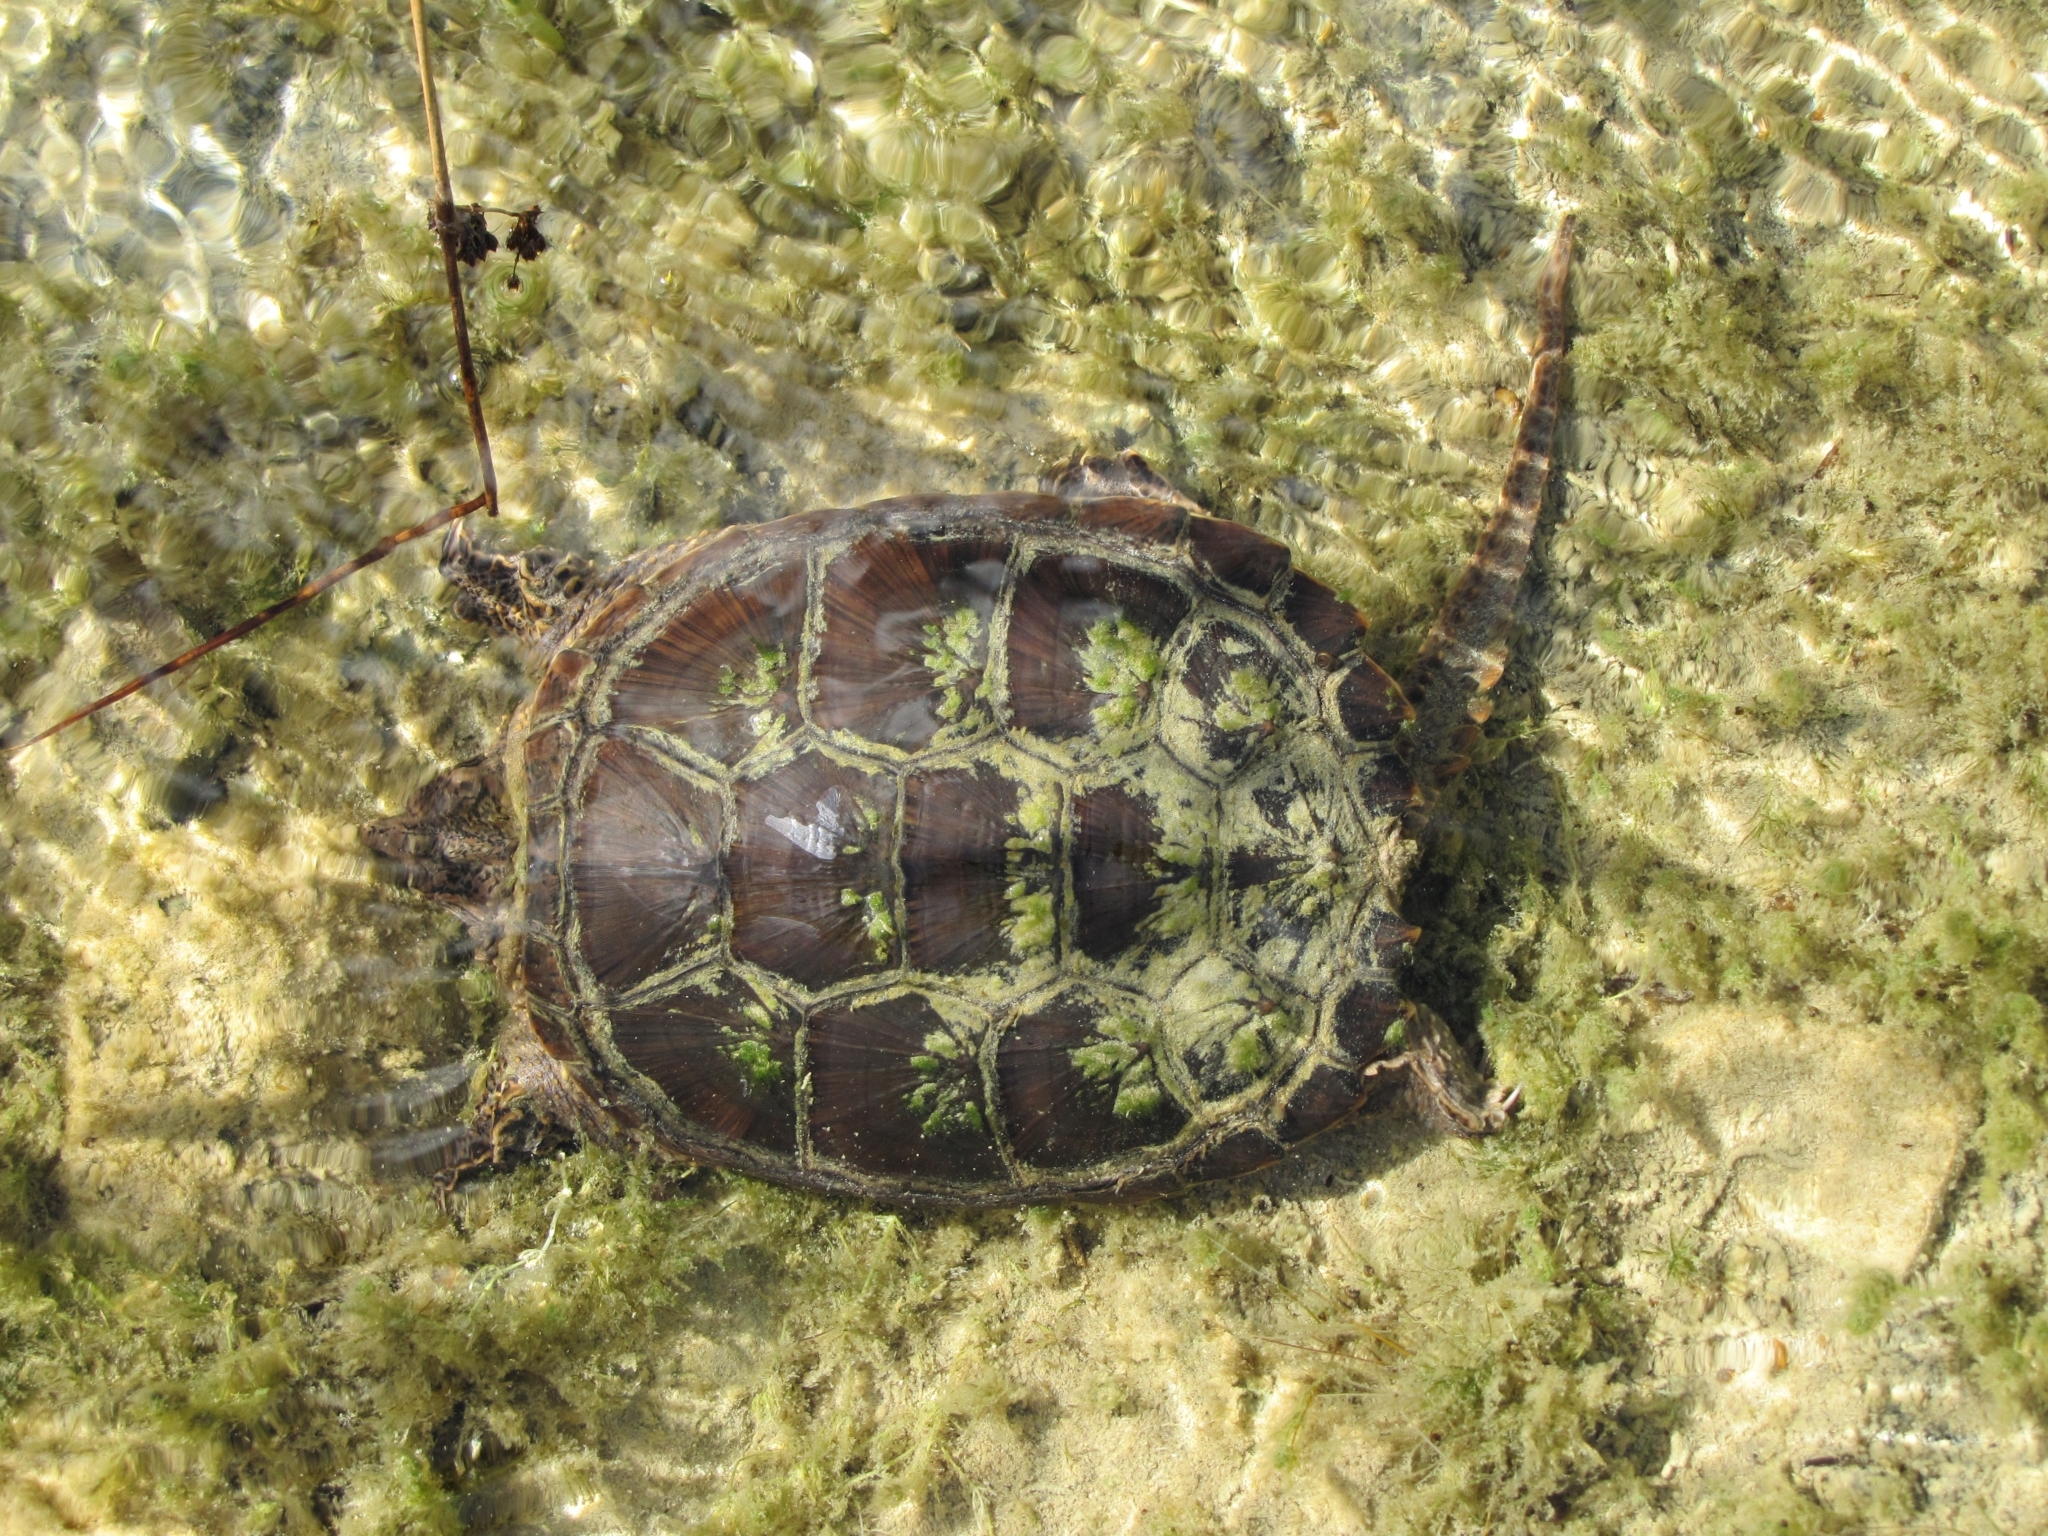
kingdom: Animalia
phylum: Chordata
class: Testudines
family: Chelydridae
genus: Chelydra
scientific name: Chelydra serpentina
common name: Common snapping turtle
